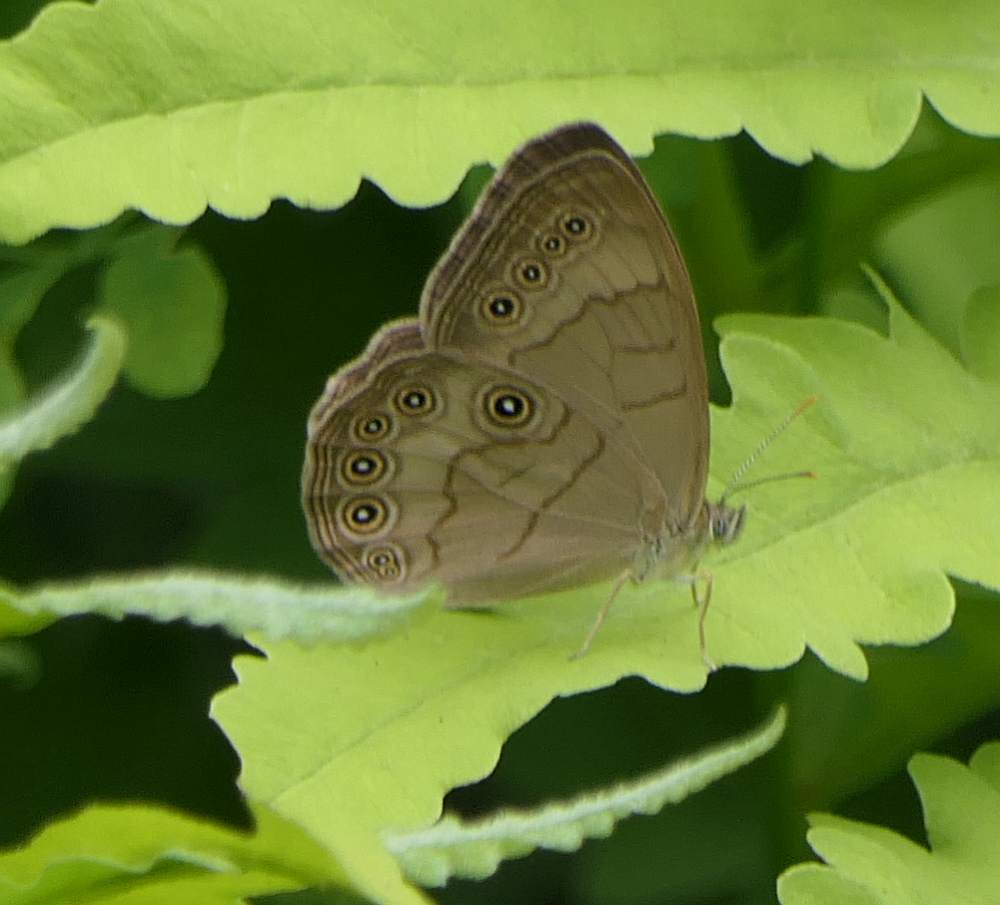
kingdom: Animalia
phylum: Arthropoda
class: Insecta
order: Lepidoptera
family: Nymphalidae
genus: Lethe
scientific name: Lethe eurydice
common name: Eyed brown
